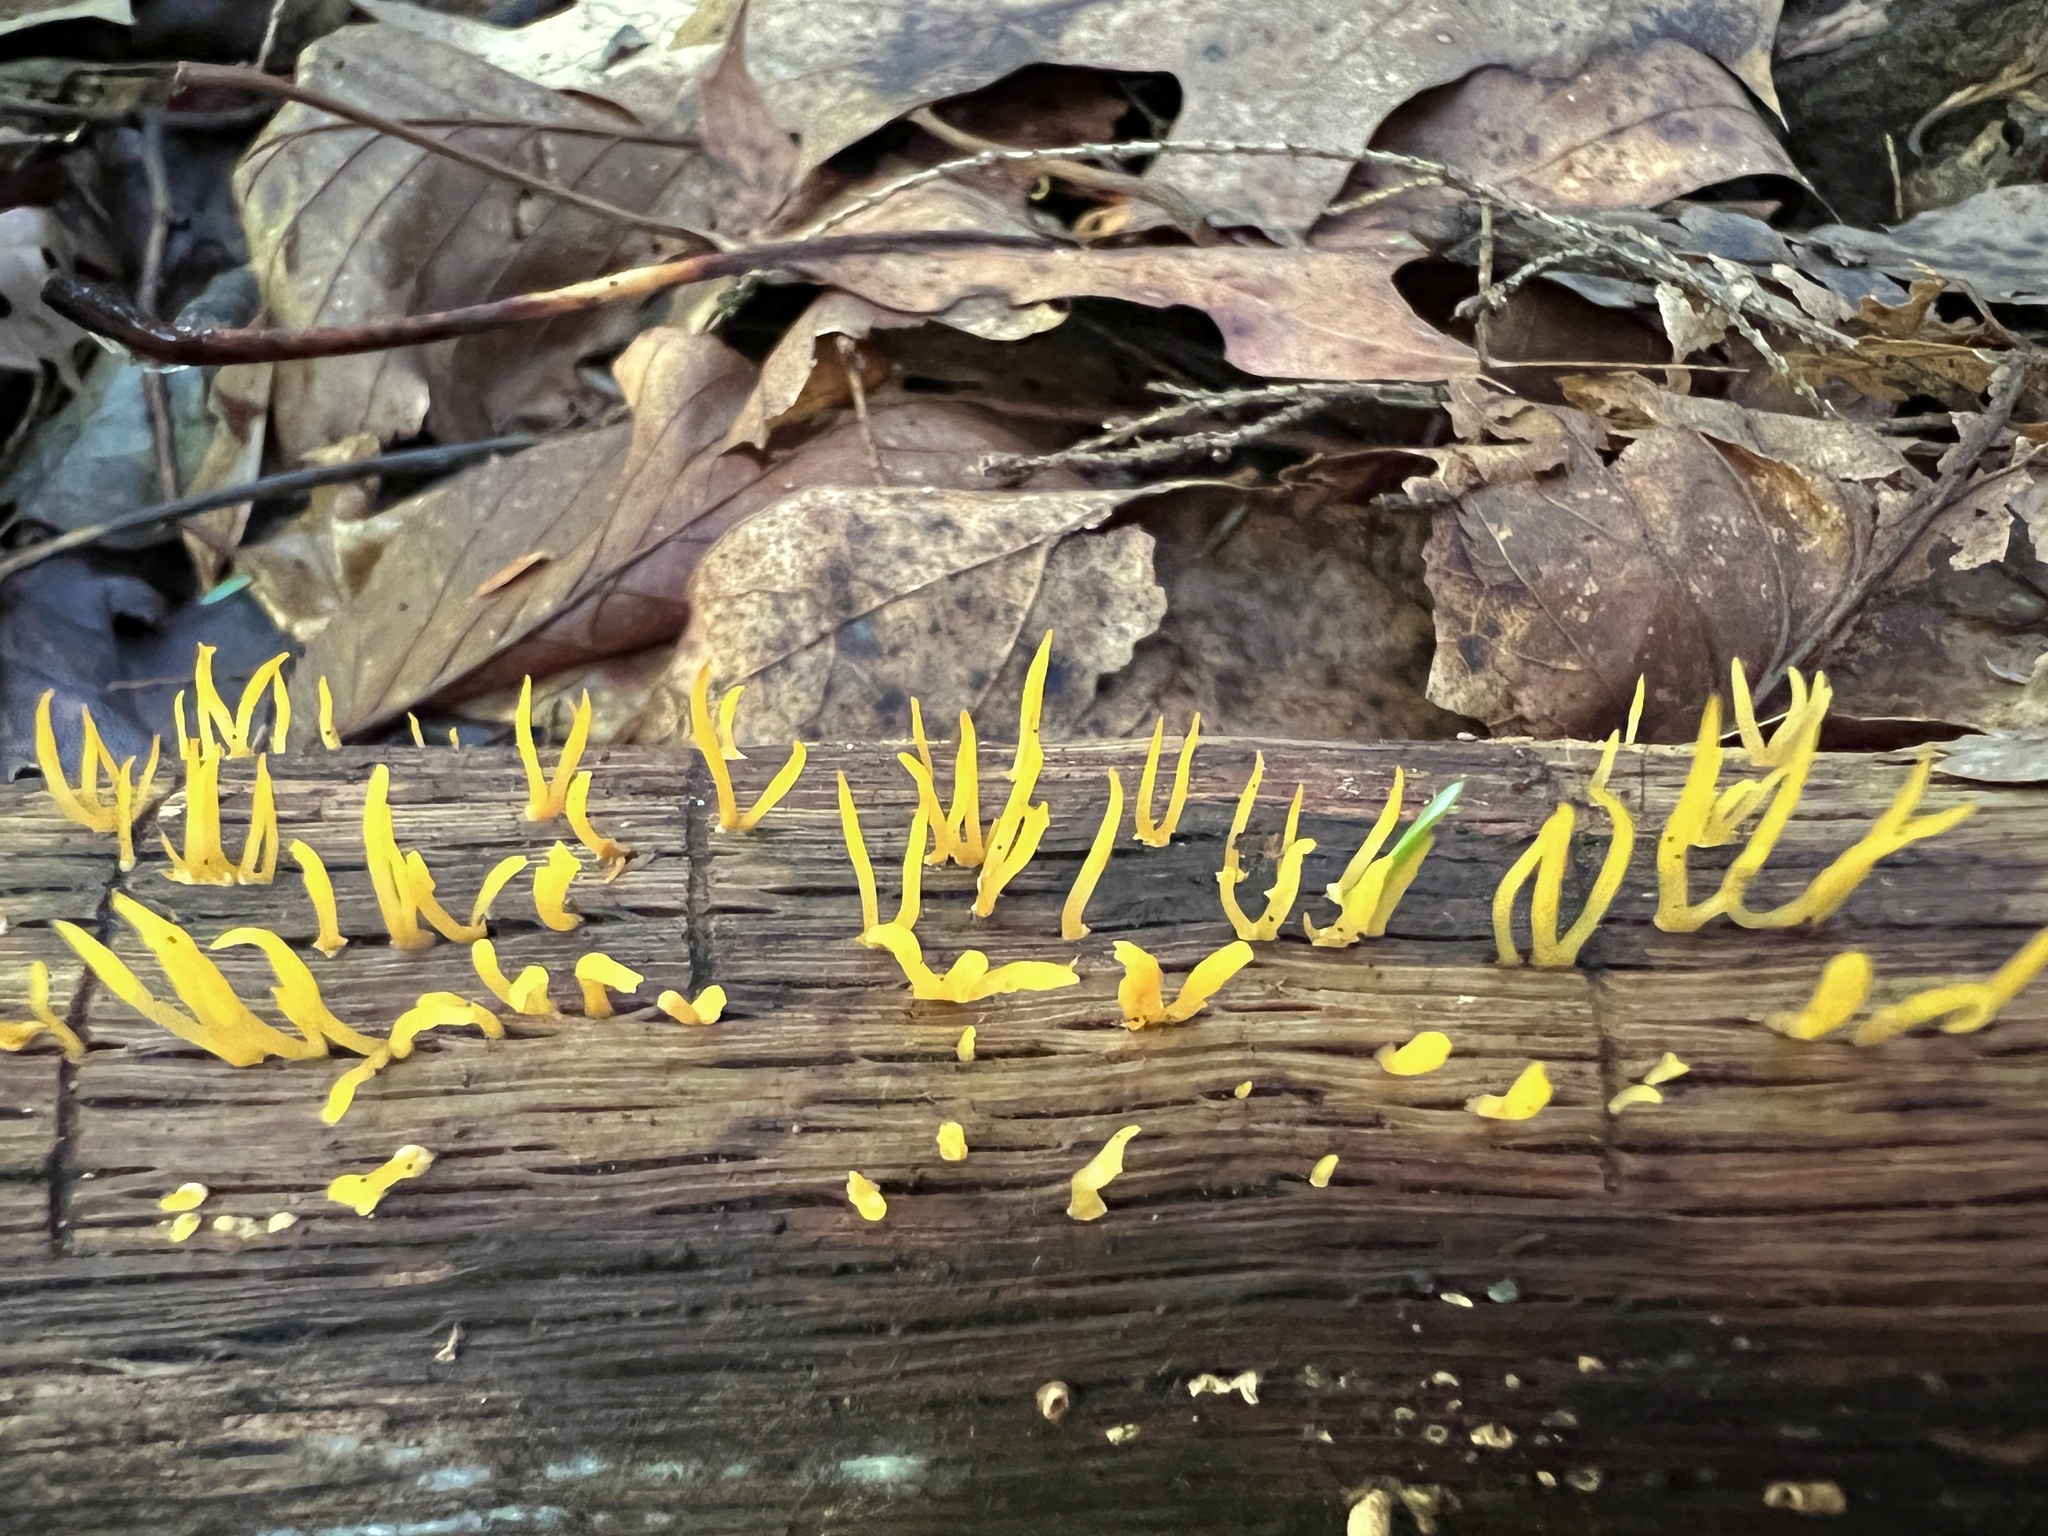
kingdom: Fungi
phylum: Basidiomycota
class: Dacrymycetes
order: Dacrymycetales
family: Dacrymycetaceae
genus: Calocera
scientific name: Calocera cornea
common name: Small stagshorn
